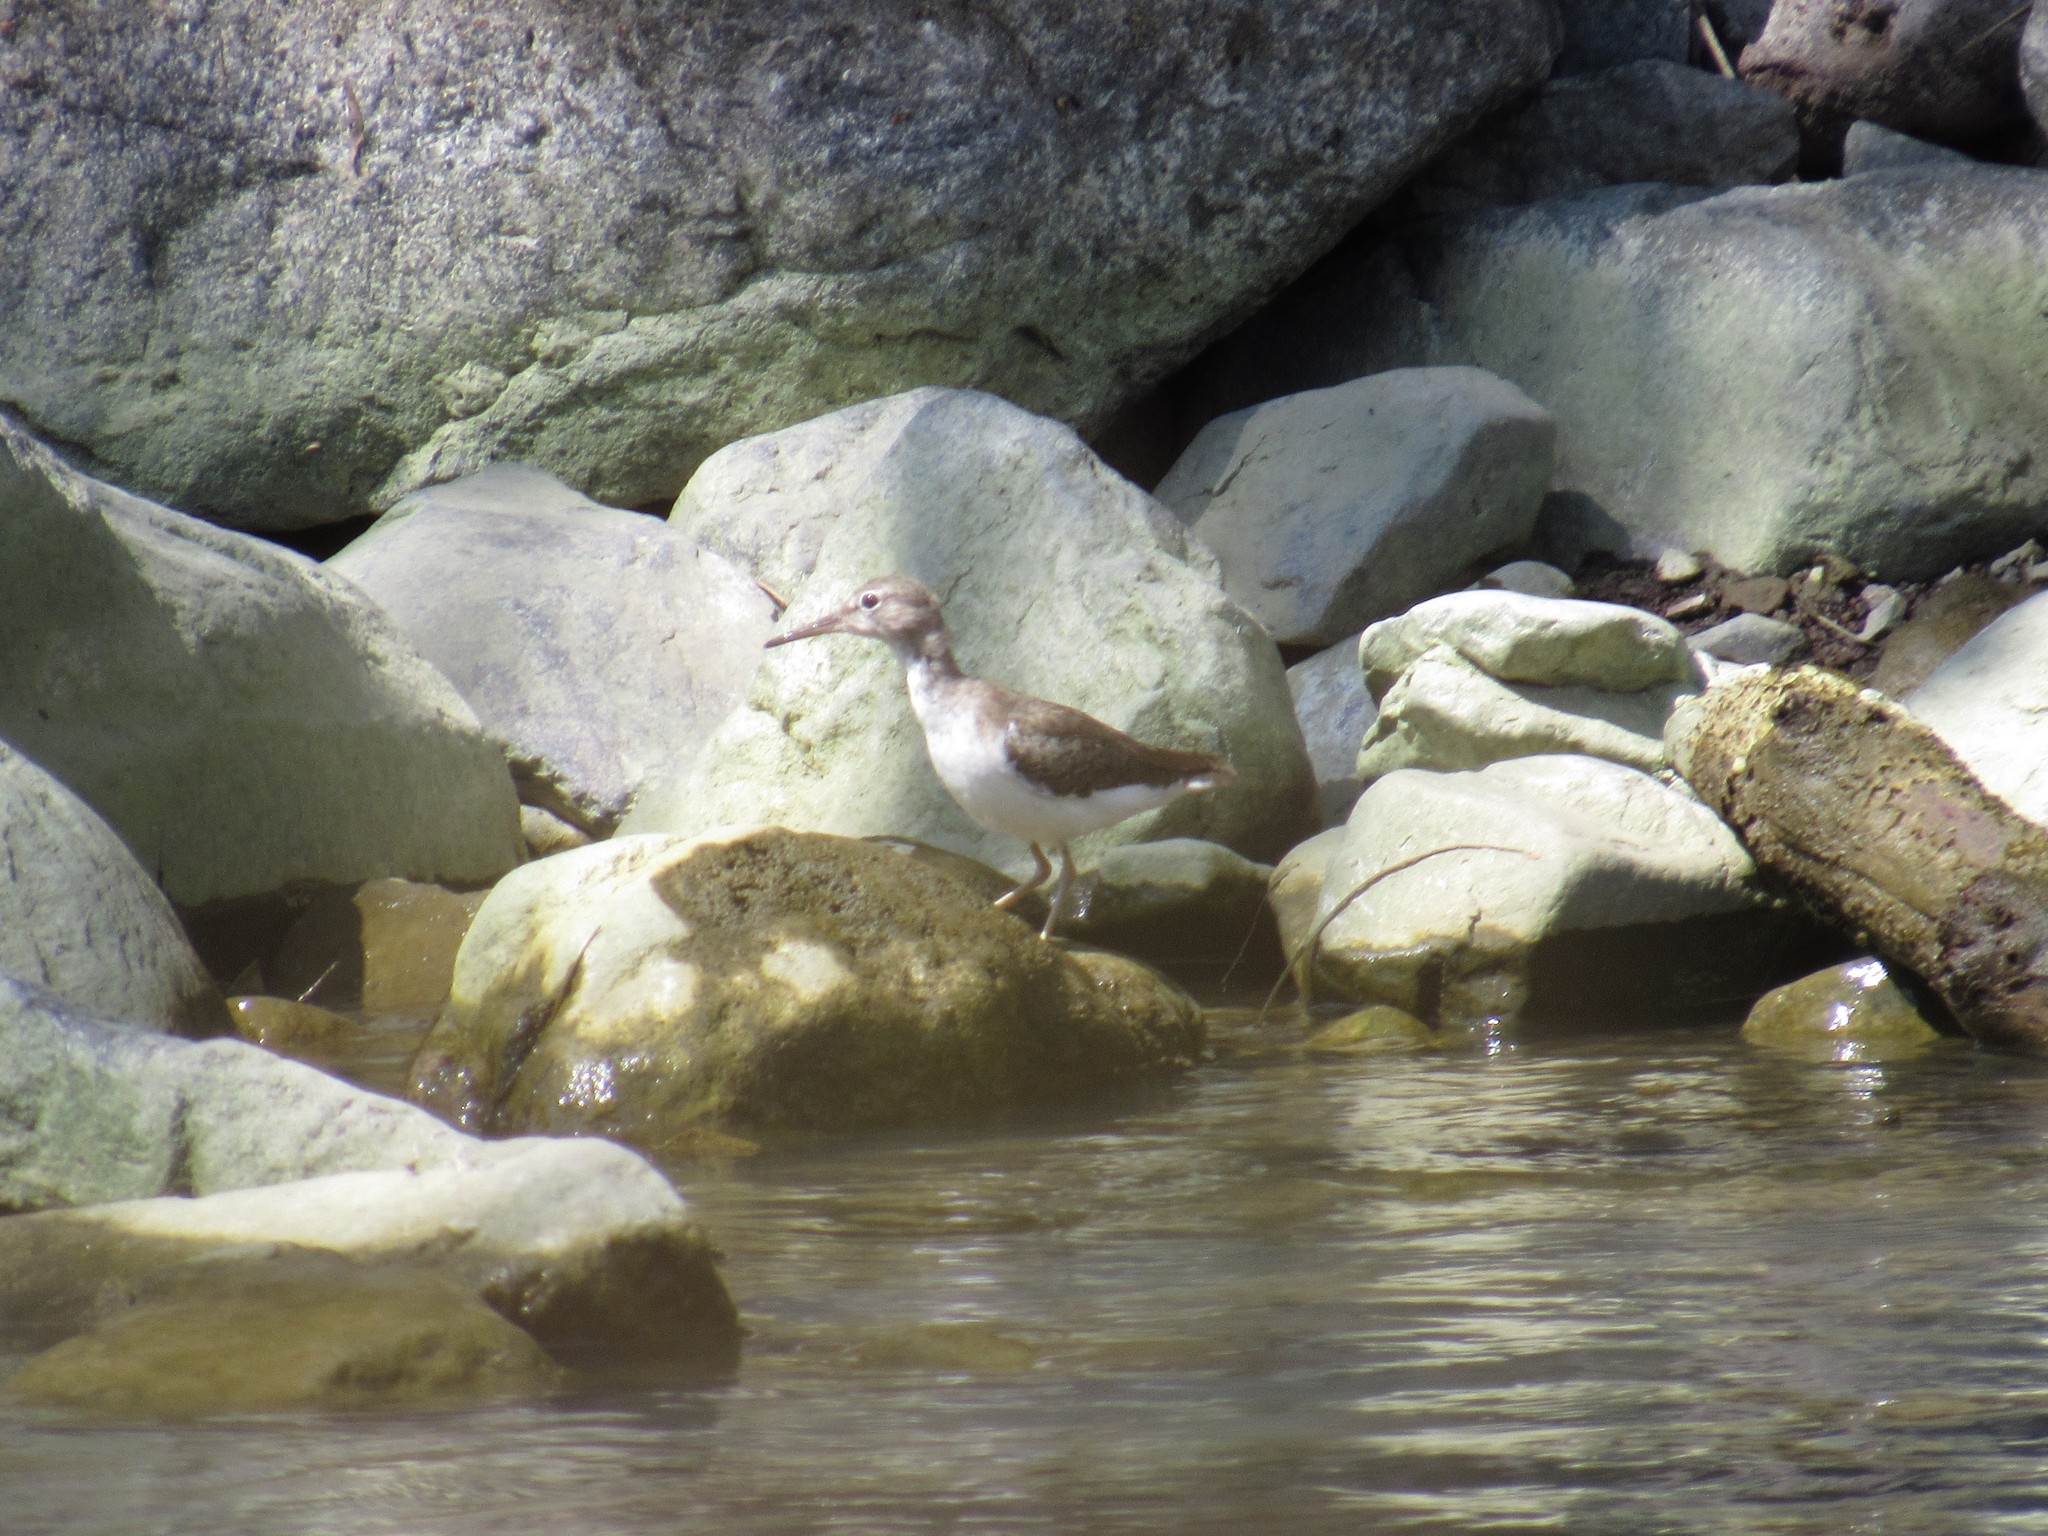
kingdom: Animalia
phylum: Chordata
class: Aves
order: Charadriiformes
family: Scolopacidae
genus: Actitis
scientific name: Actitis macularius
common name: Spotted sandpiper
